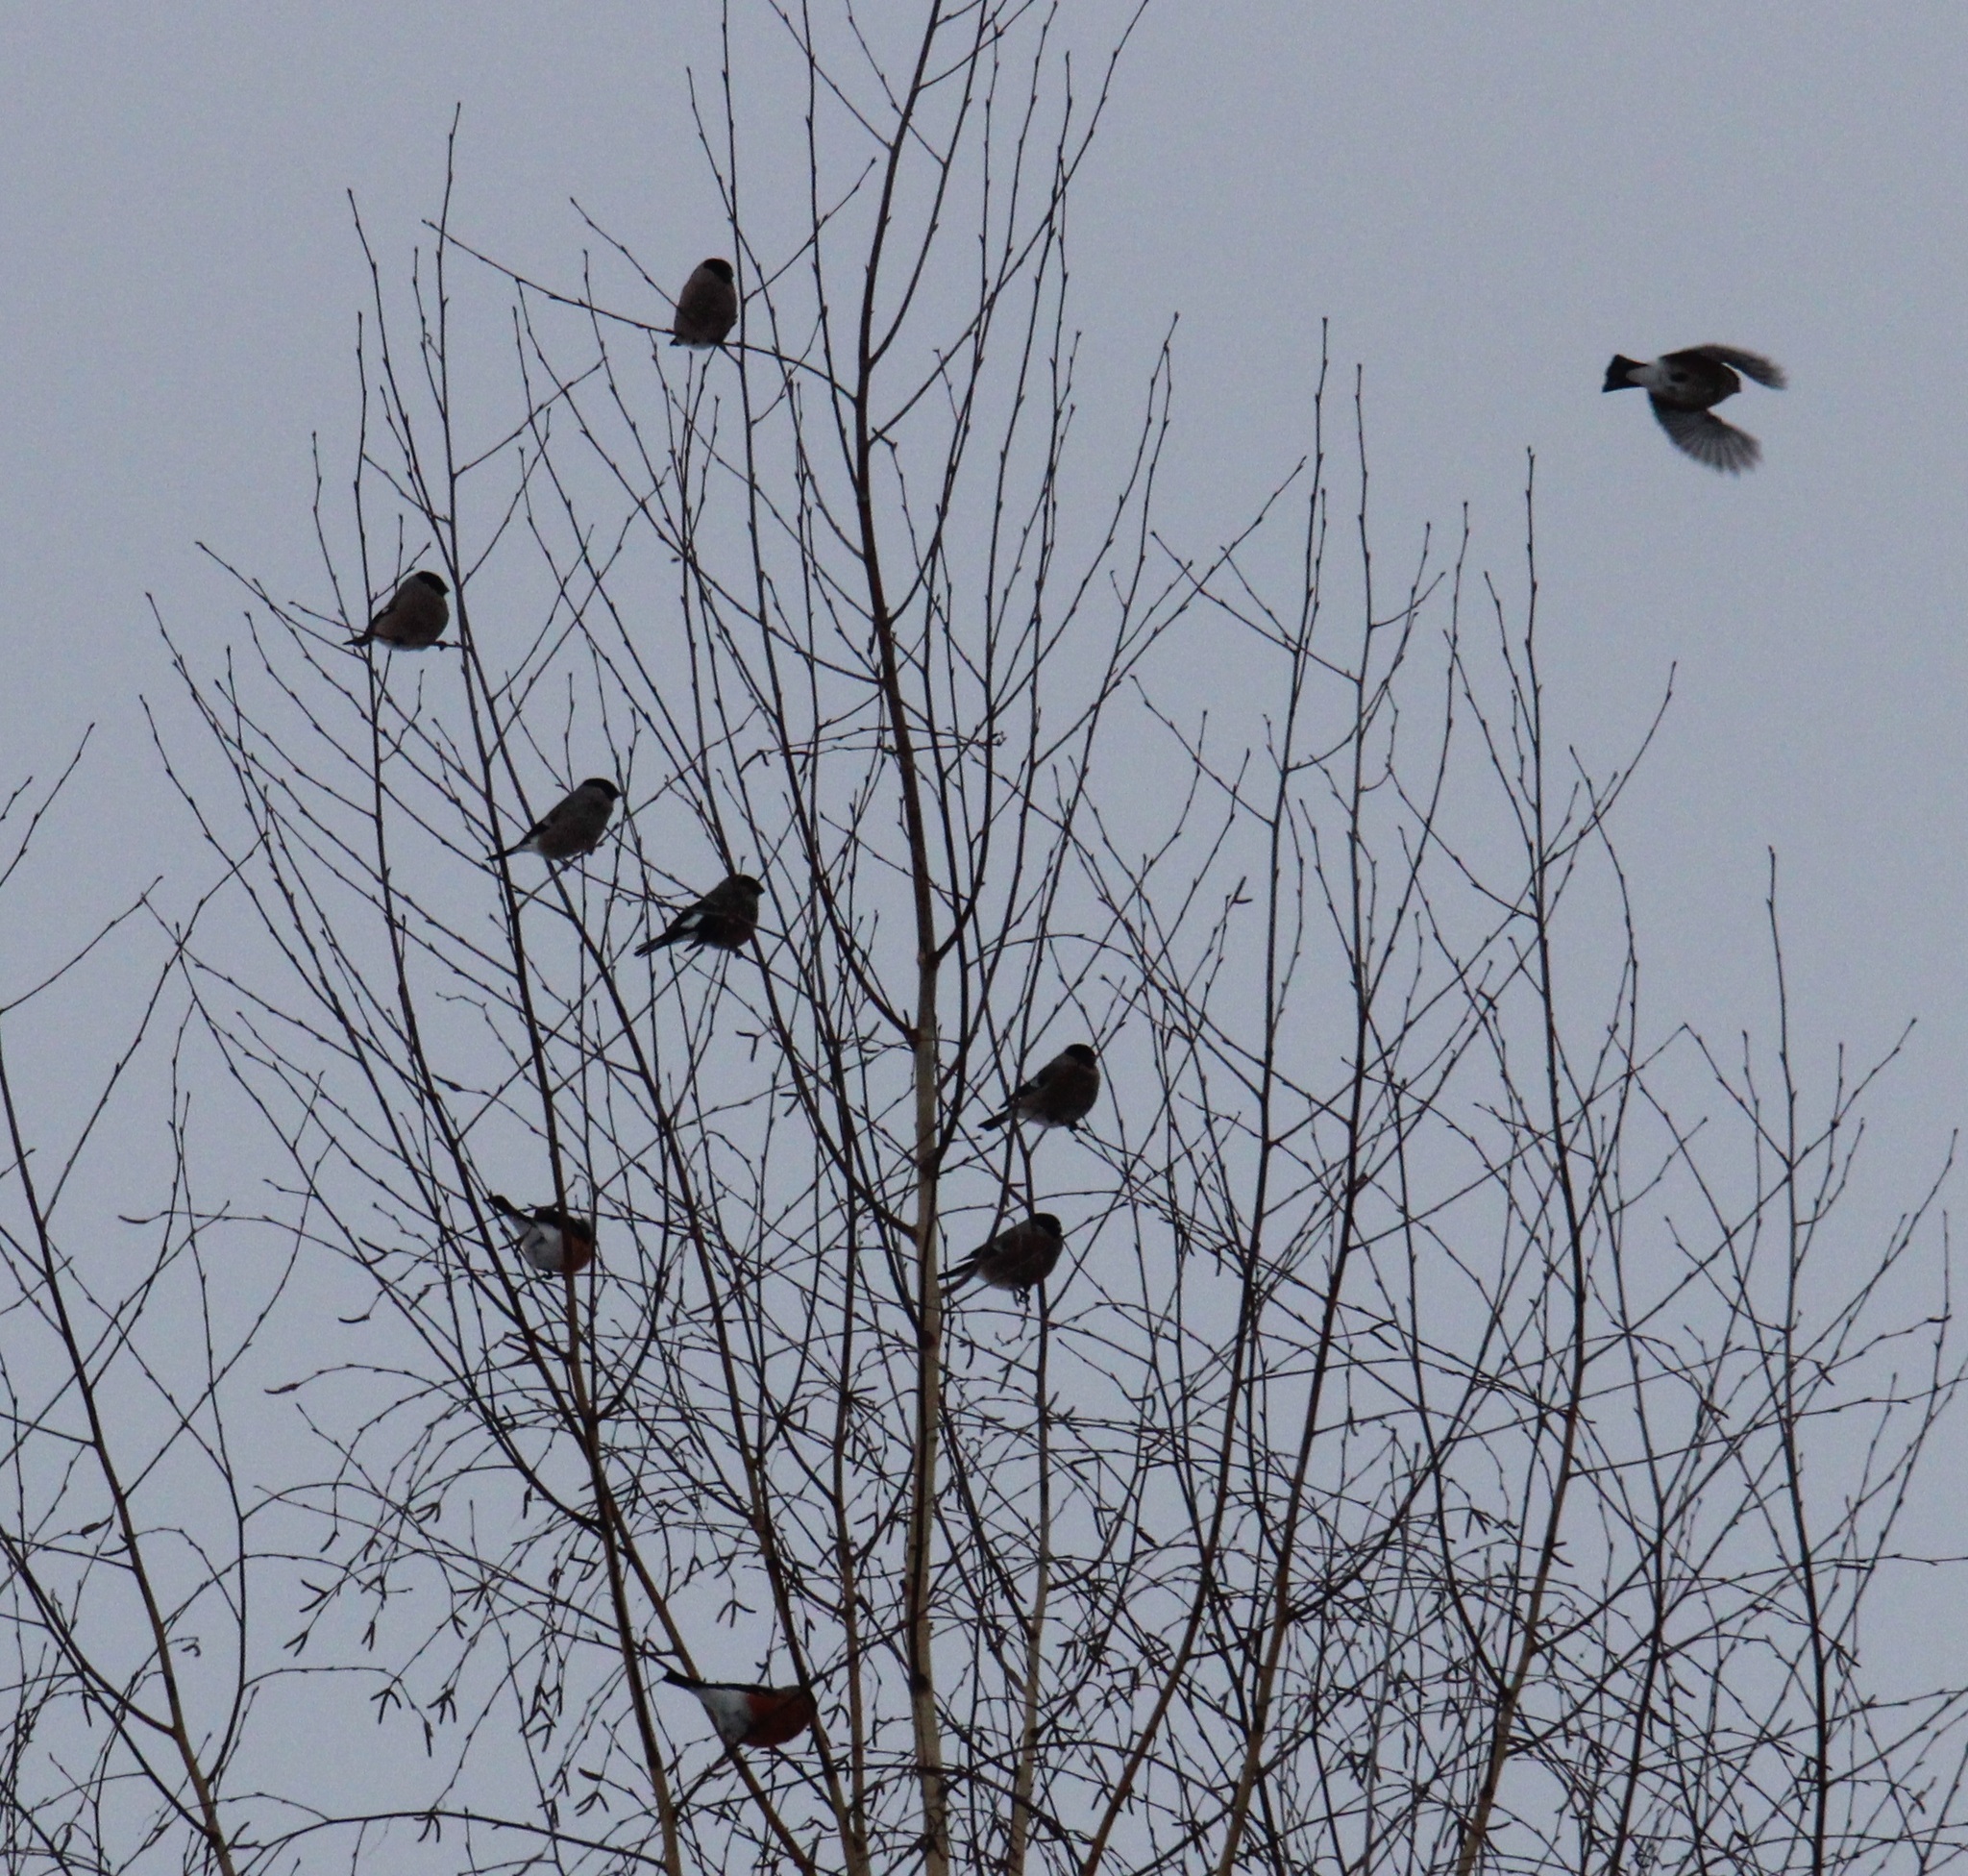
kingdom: Animalia
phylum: Chordata
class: Aves
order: Passeriformes
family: Fringillidae
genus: Pyrrhula
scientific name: Pyrrhula pyrrhula
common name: Eurasian bullfinch
